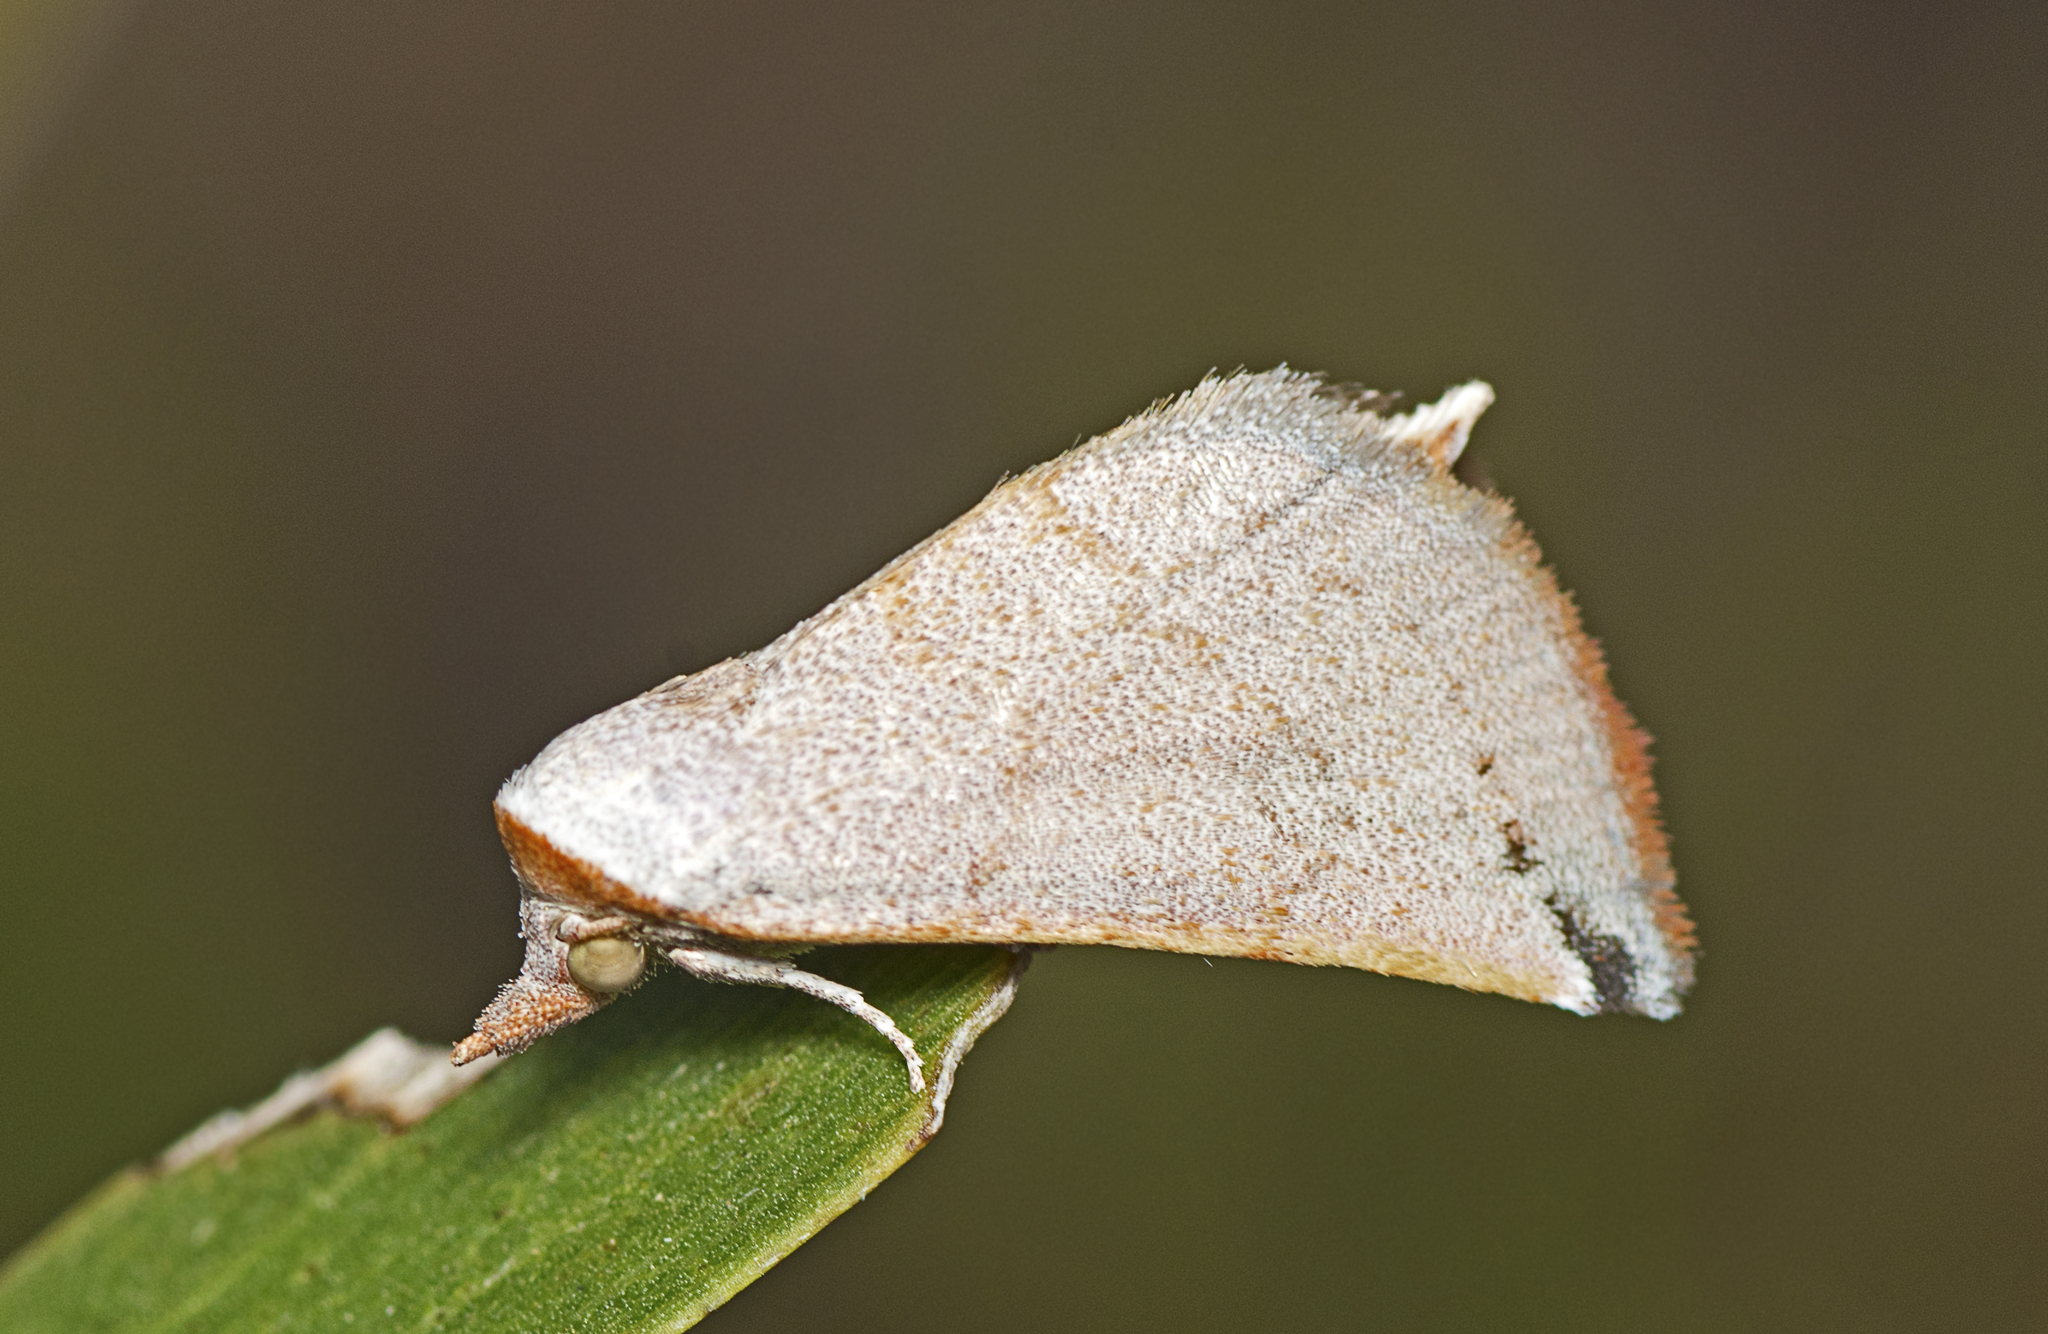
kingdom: Animalia
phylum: Arthropoda
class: Insecta
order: Lepidoptera
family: Noctuidae
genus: Mataeomera
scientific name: Mataeomera ligata
